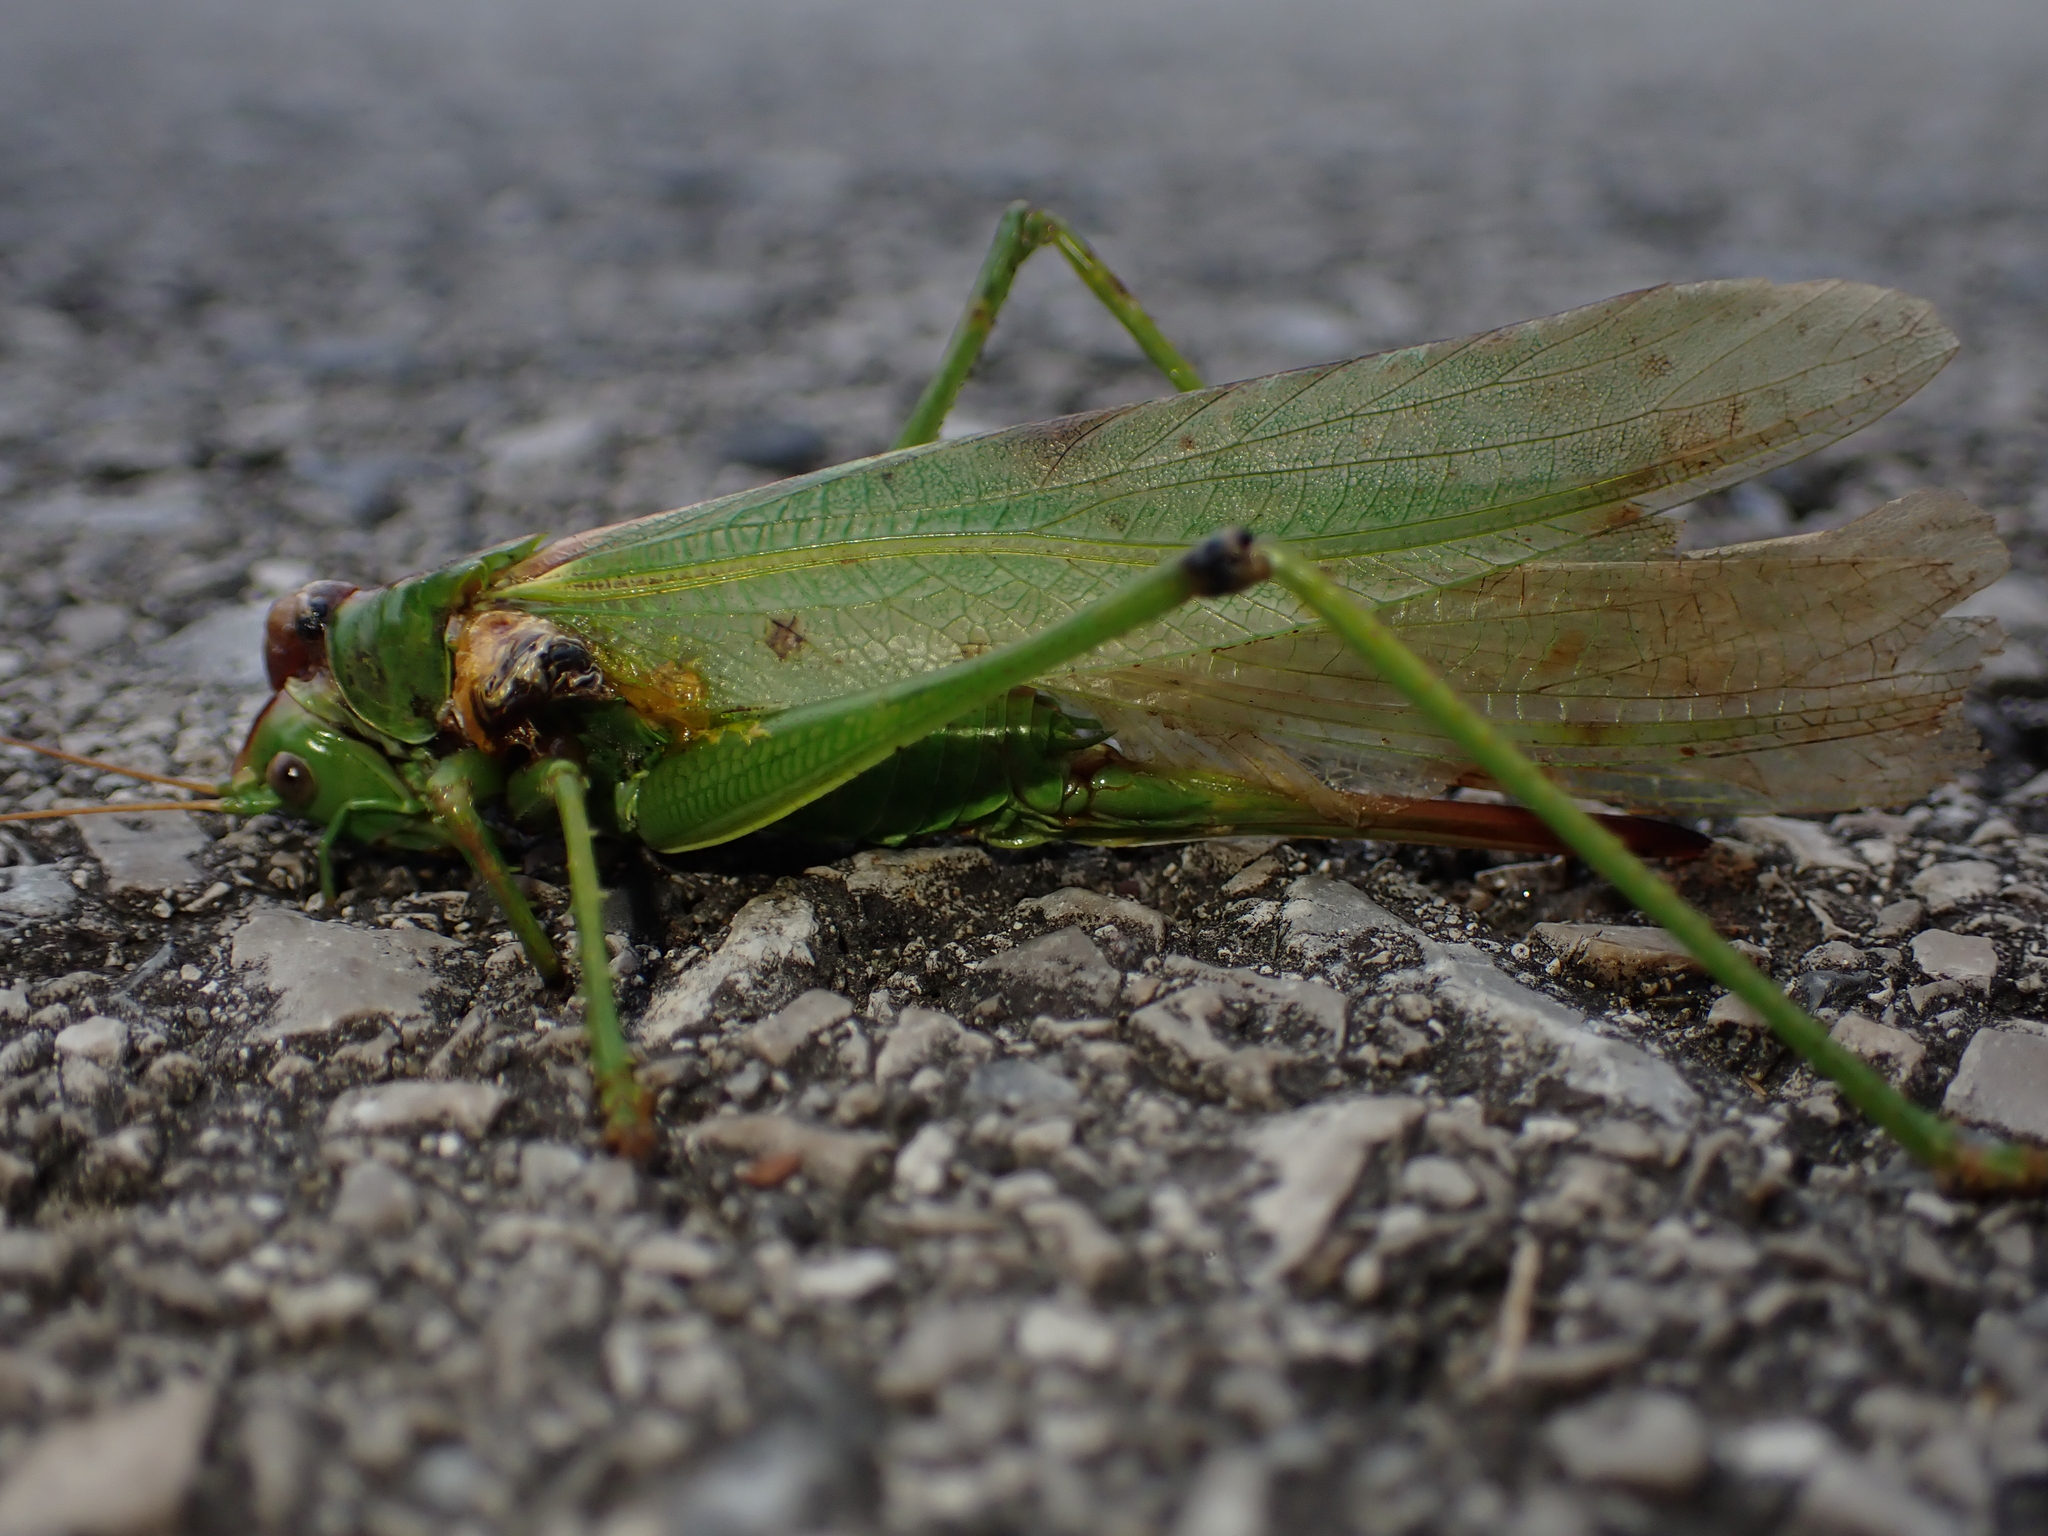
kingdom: Animalia
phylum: Arthropoda
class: Insecta
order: Orthoptera
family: Tettigoniidae
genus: Tettigonia
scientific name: Tettigonia viridissima
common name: Great green bush-cricket
